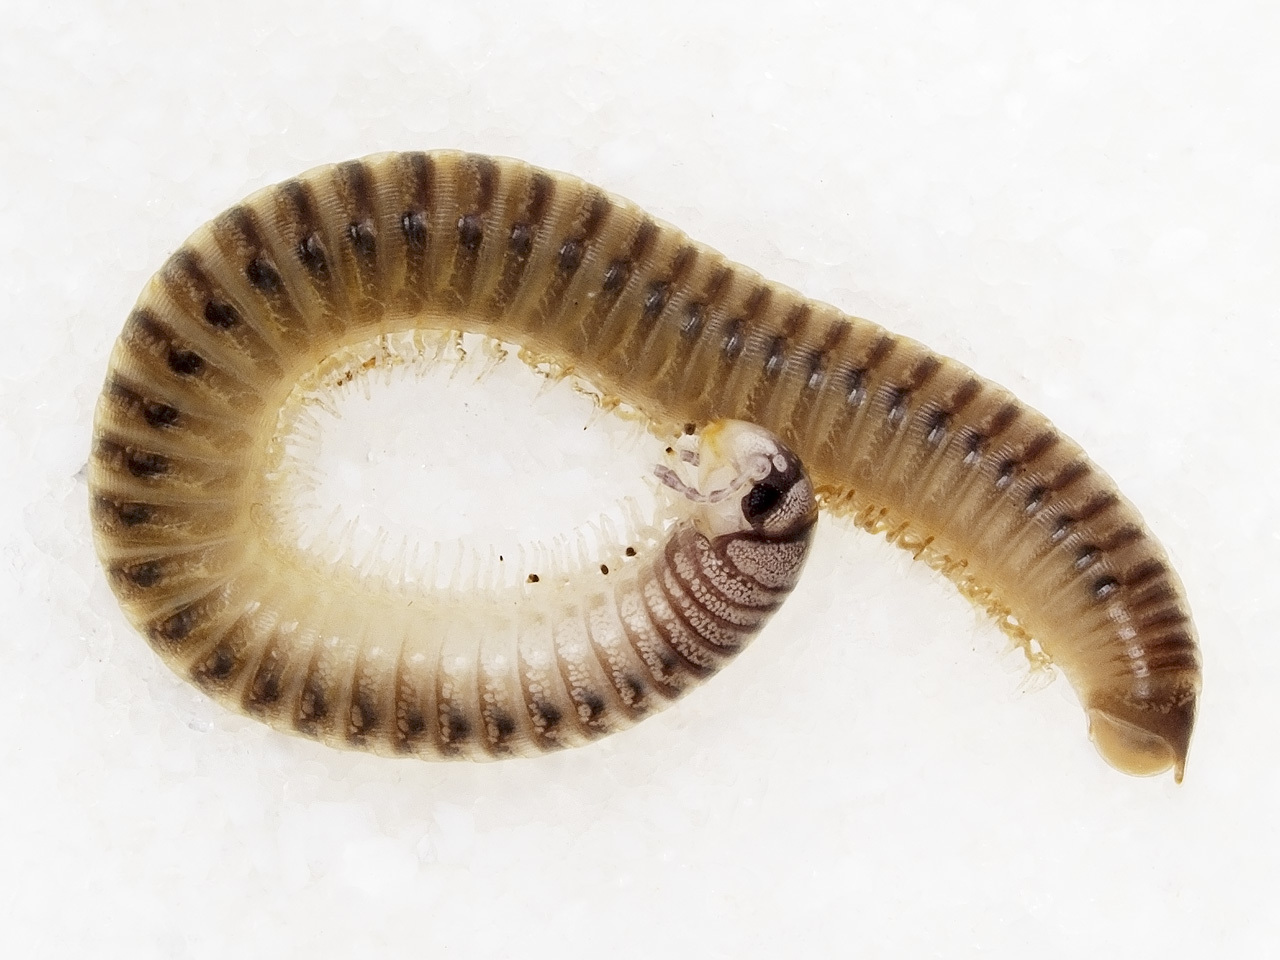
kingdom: Animalia
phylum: Arthropoda
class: Diplopoda
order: Julida
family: Julidae
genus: Cylindroiulus
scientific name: Cylindroiulus punctatus
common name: Blunt-tailed millipede
